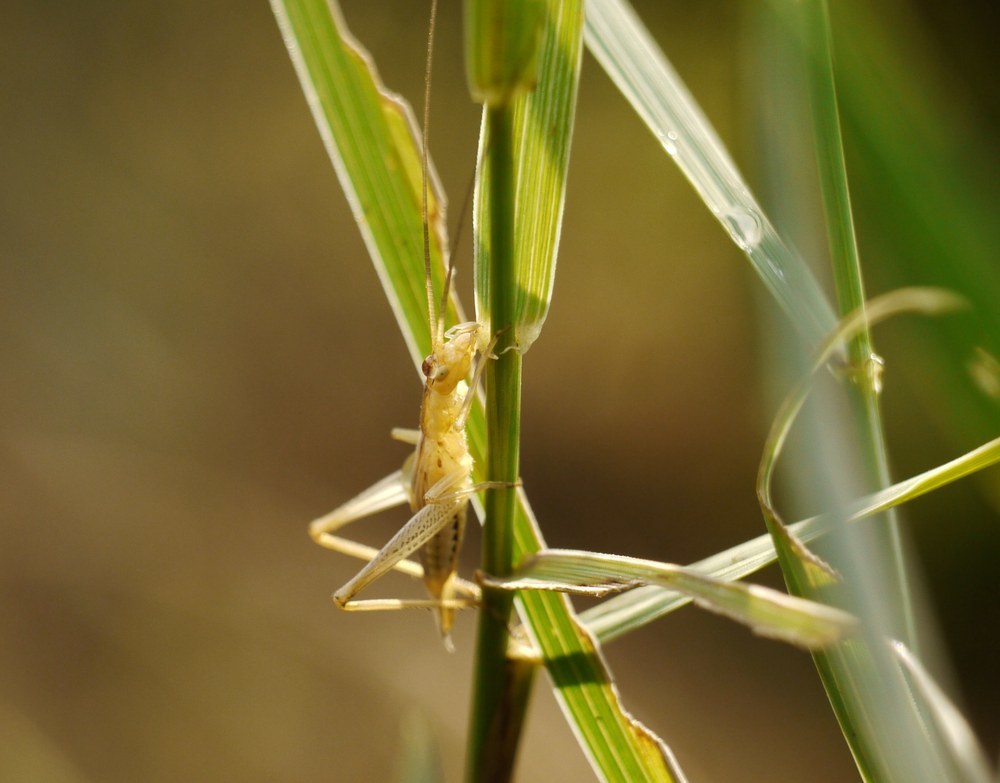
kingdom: Animalia
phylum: Arthropoda
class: Insecta
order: Orthoptera
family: Gryllidae
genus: Oecanthus
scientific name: Oecanthus pellucens
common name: Tree-cricket
